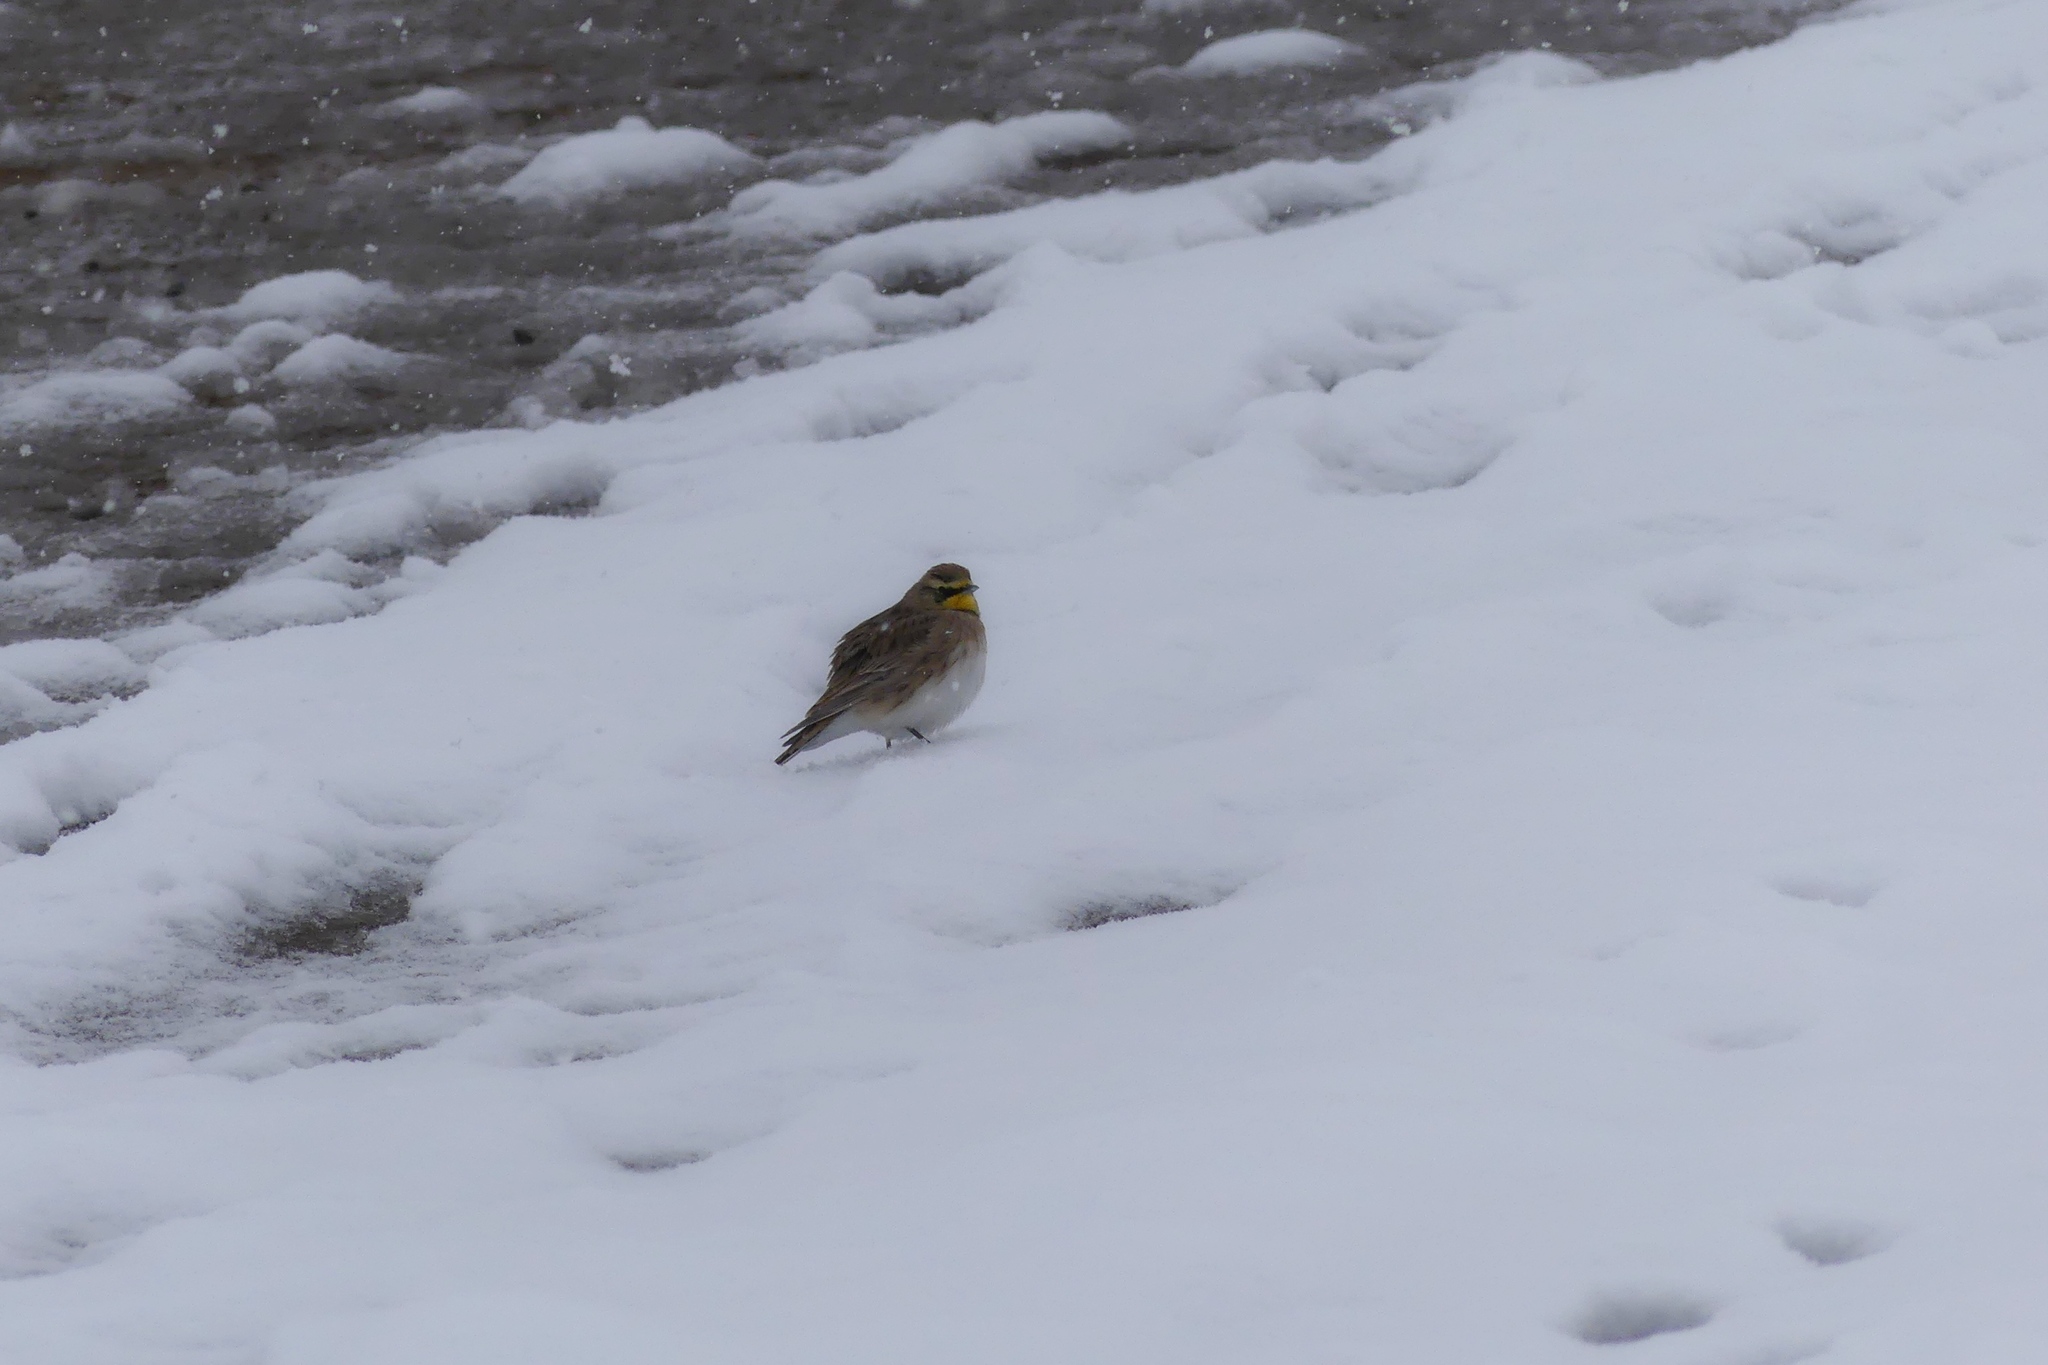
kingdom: Animalia
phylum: Chordata
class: Aves
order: Passeriformes
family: Alaudidae
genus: Eremophila
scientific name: Eremophila alpestris
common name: Horned lark
